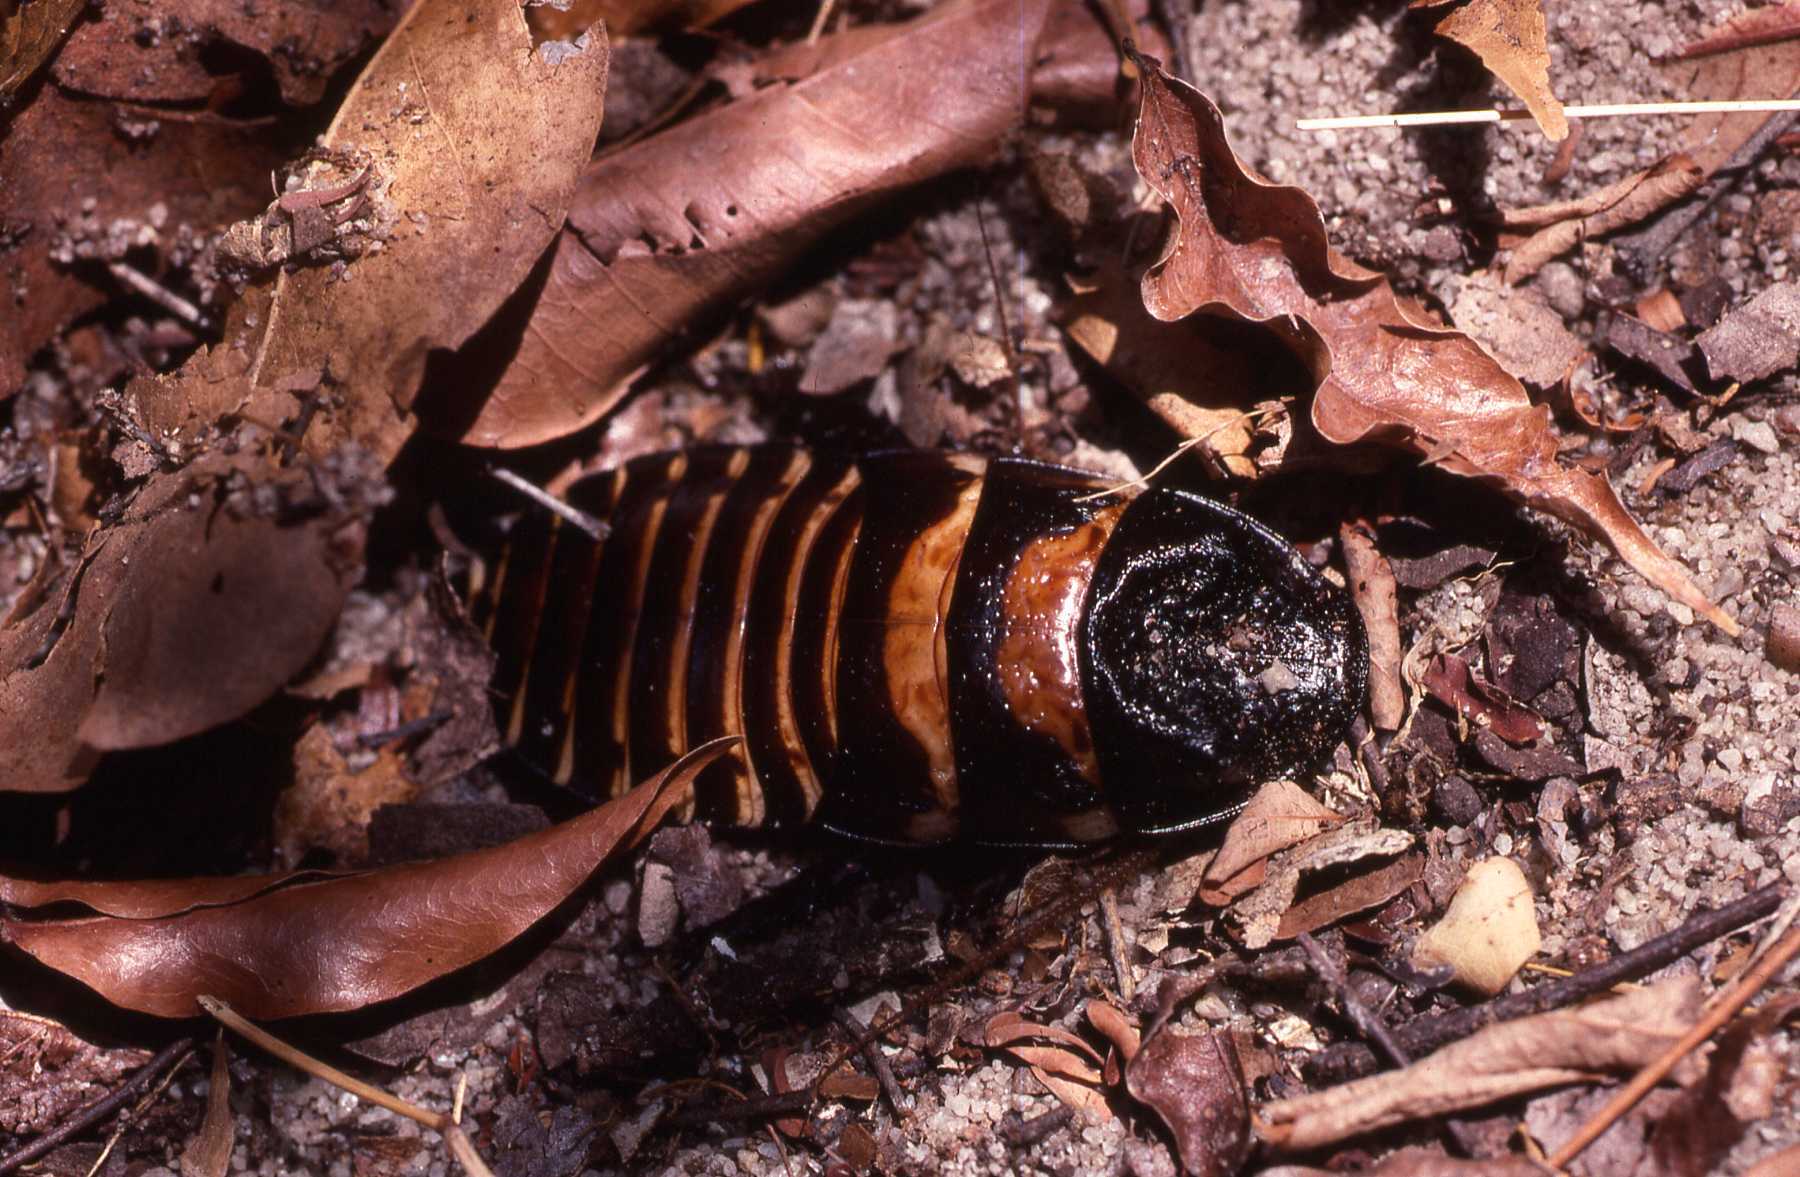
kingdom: Animalia
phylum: Arthropoda
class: Insecta
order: Blattodea
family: Blaberidae
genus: Elliptorhina
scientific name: Elliptorhina coquereliana
